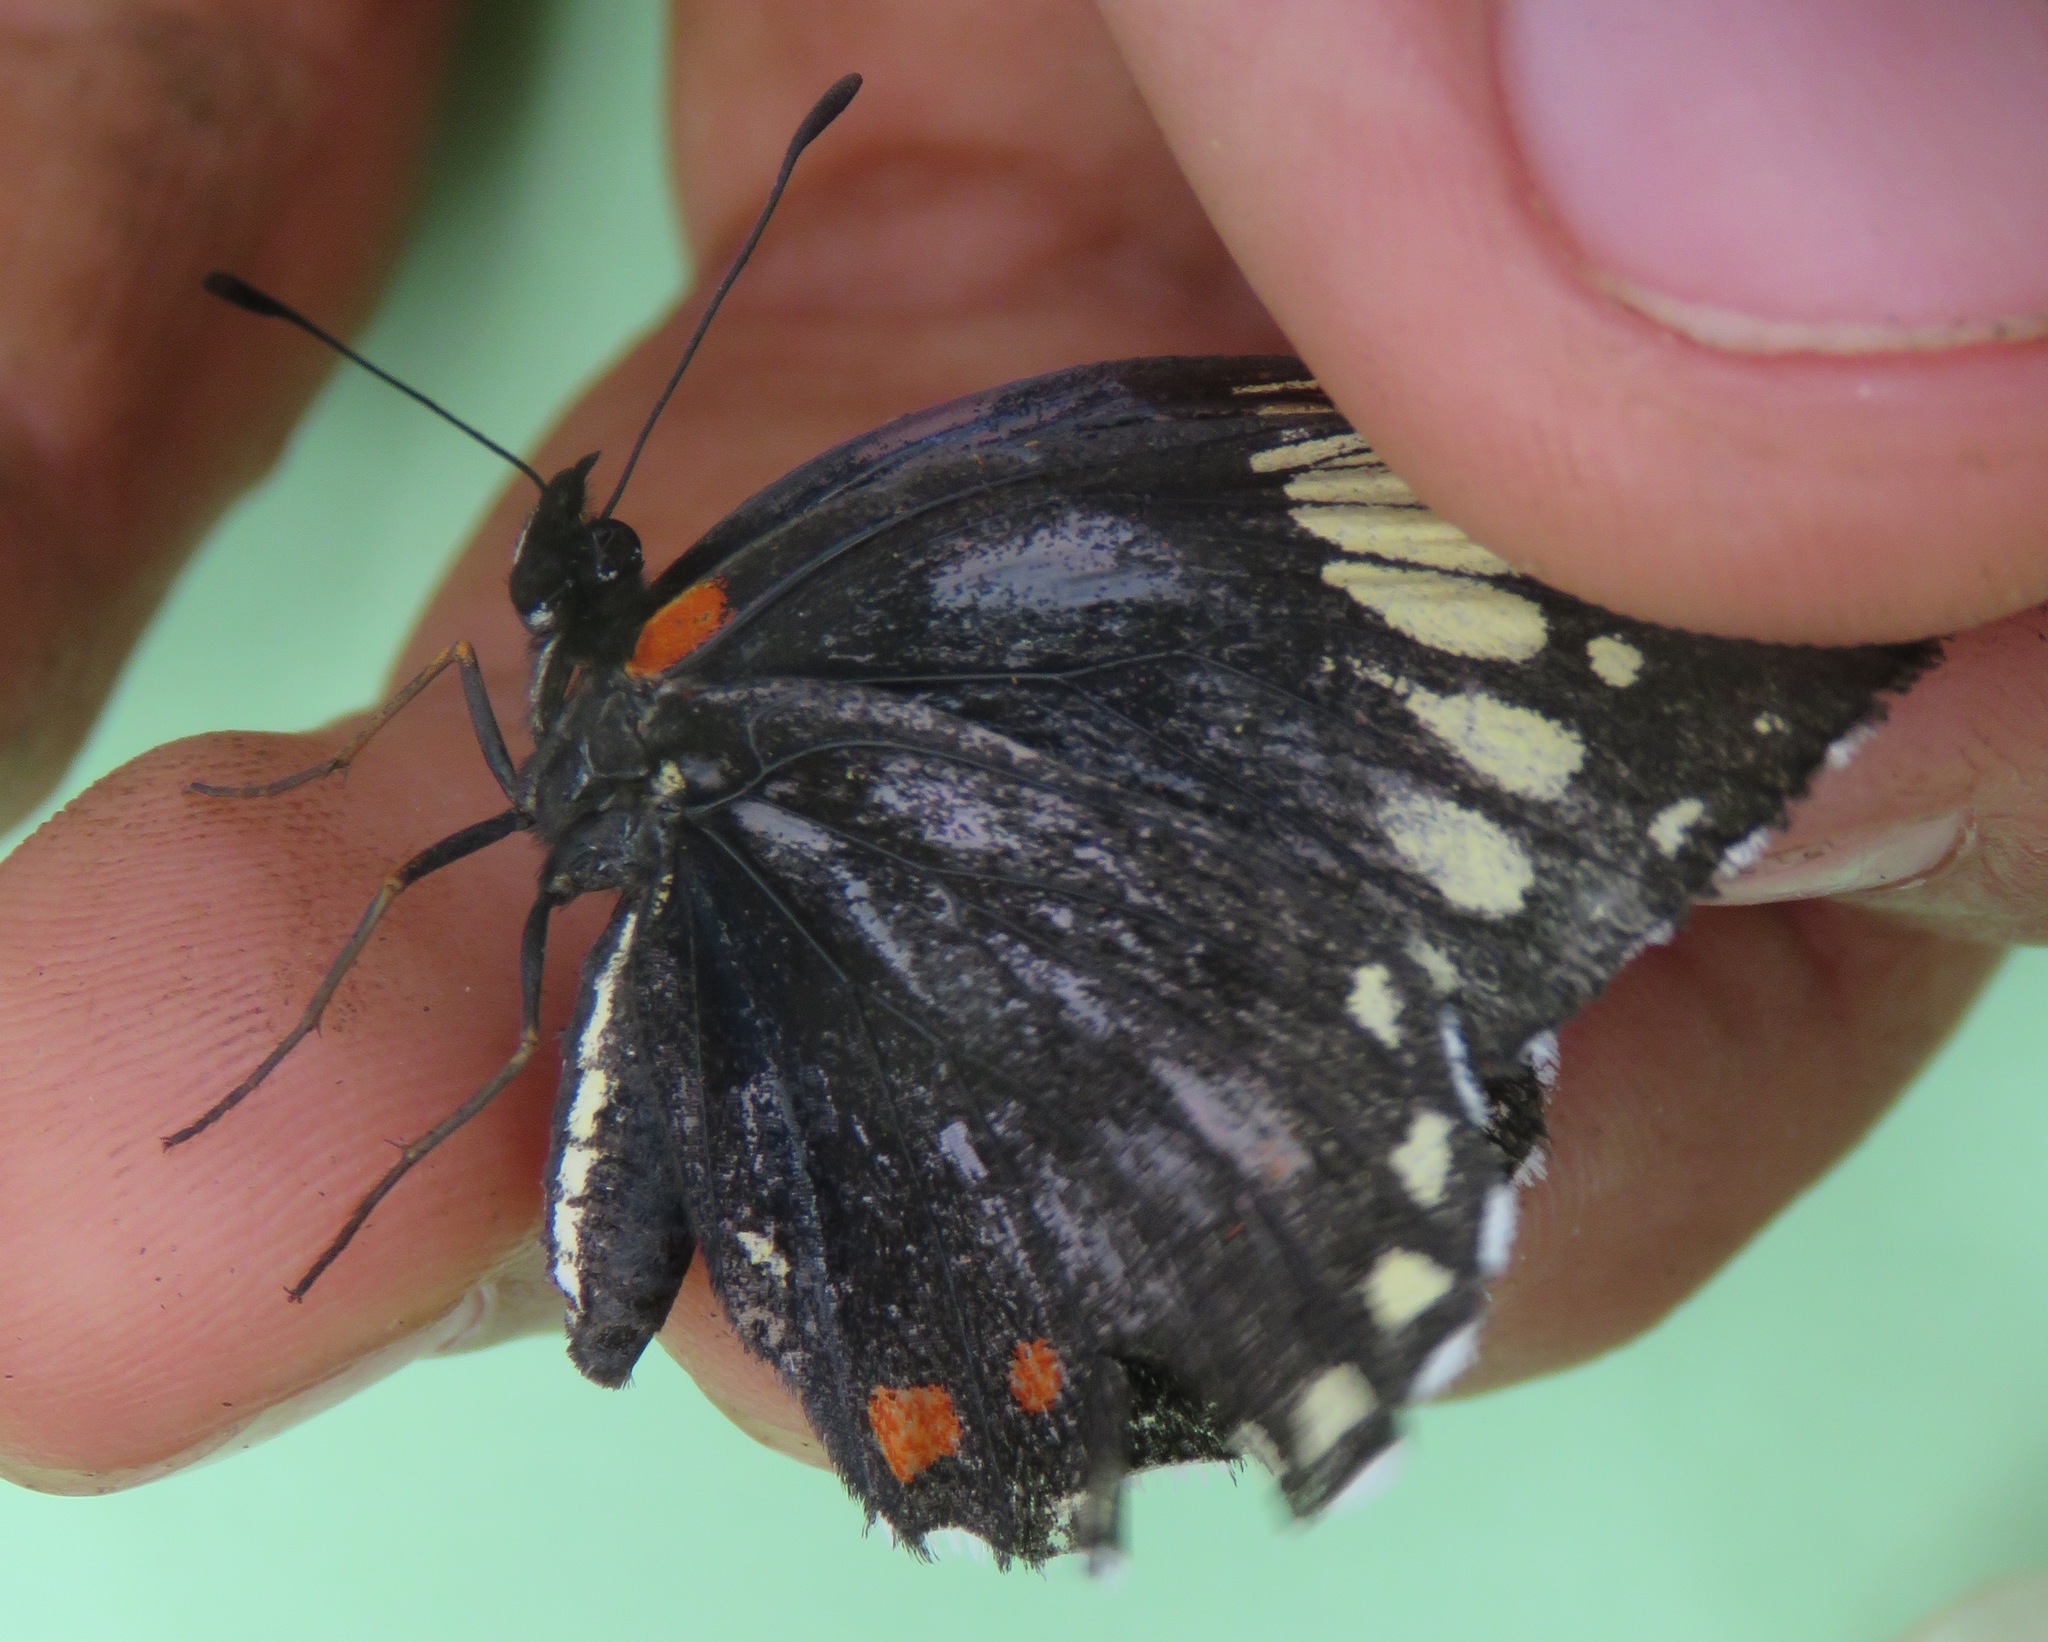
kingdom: Animalia
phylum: Arthropoda
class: Insecta
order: Lepidoptera
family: Nymphalidae
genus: Chlosyne
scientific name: Chlosyne melanarge
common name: Cream-banded checkerspot
